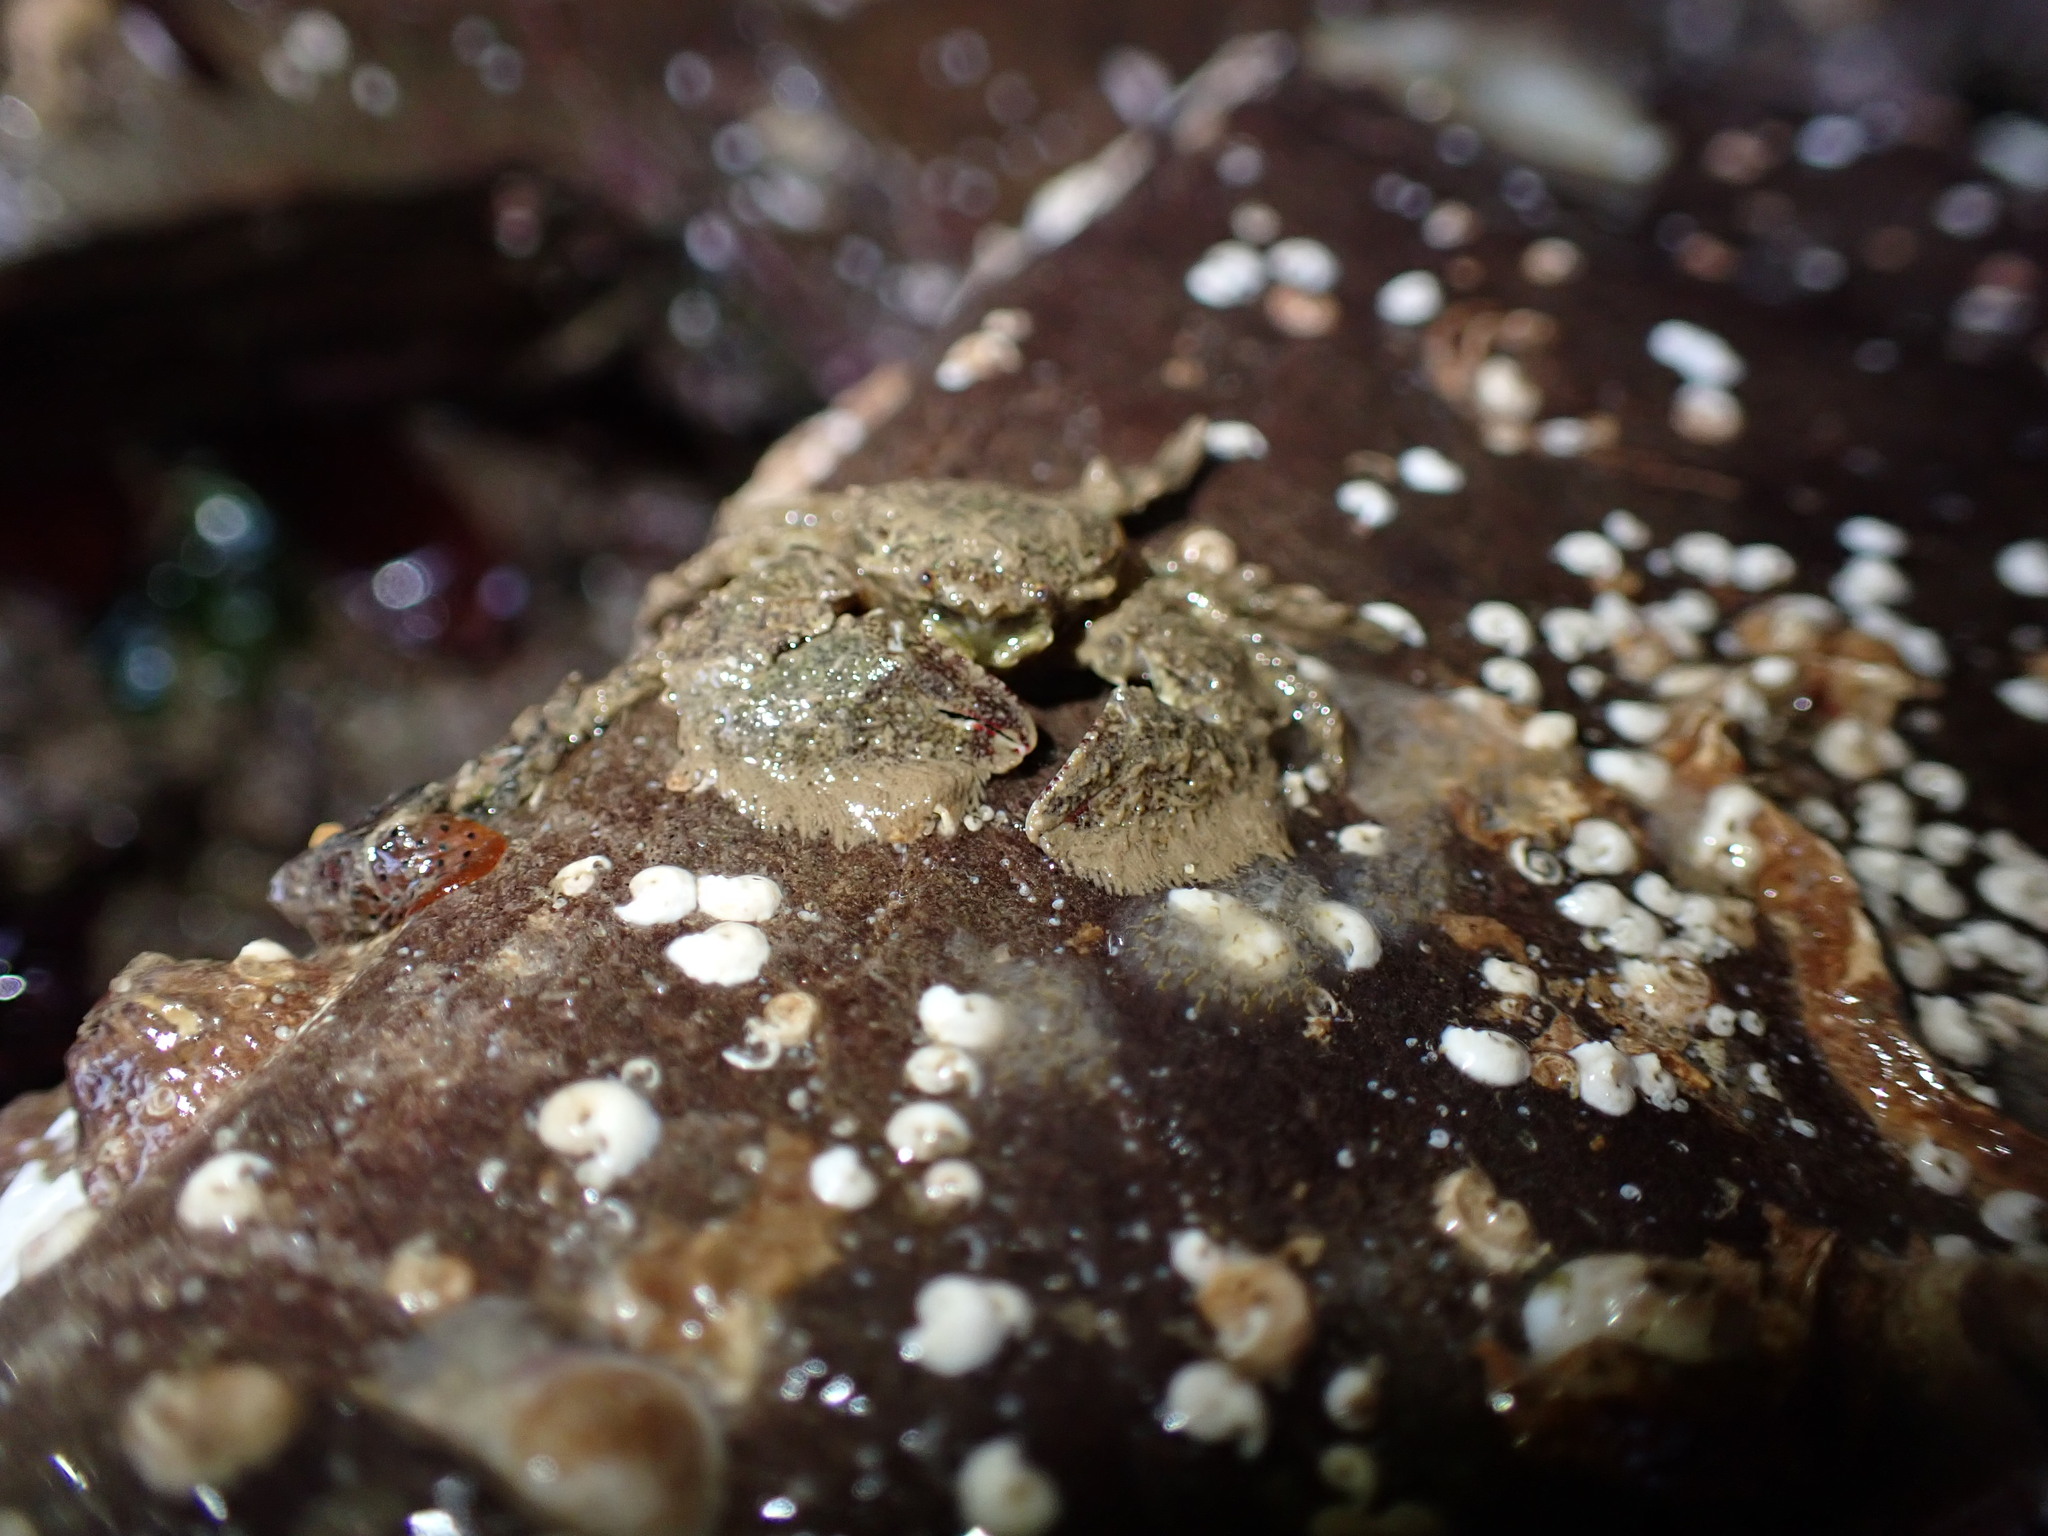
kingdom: Animalia
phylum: Arthropoda
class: Malacostraca
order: Decapoda
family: Porcellanidae
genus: Porcellana
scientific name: Porcellana platycheles
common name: Porcelain crab
